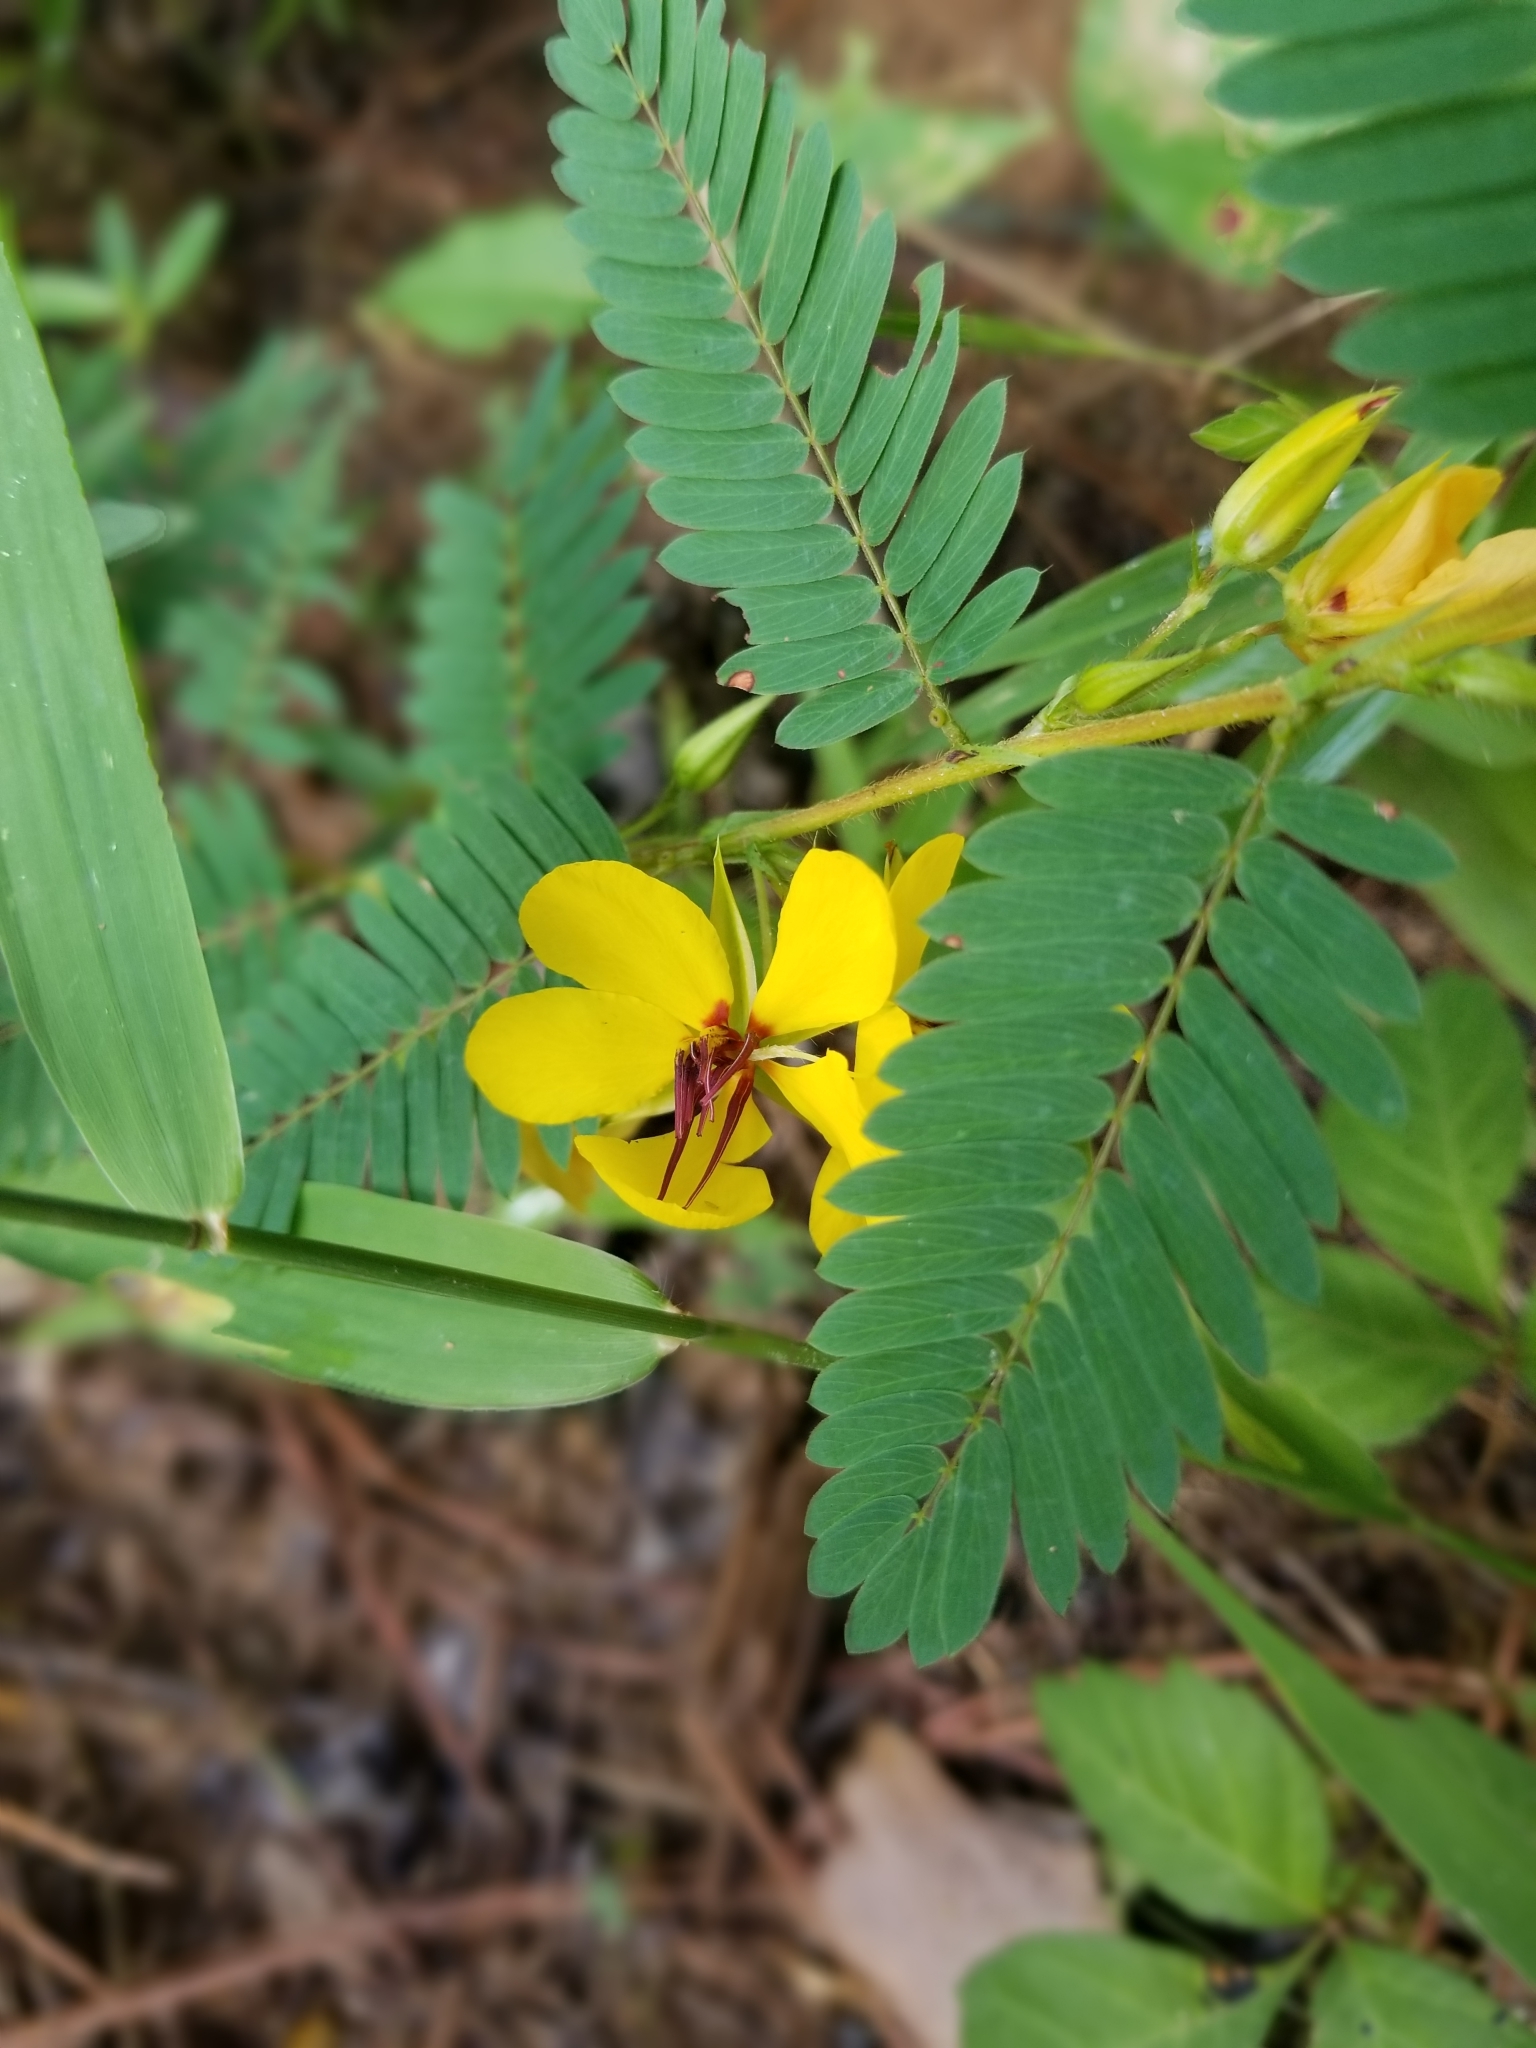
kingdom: Plantae
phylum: Tracheophyta
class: Magnoliopsida
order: Fabales
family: Fabaceae
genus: Chamaecrista
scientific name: Chamaecrista fasciculata
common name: Golden cassia
